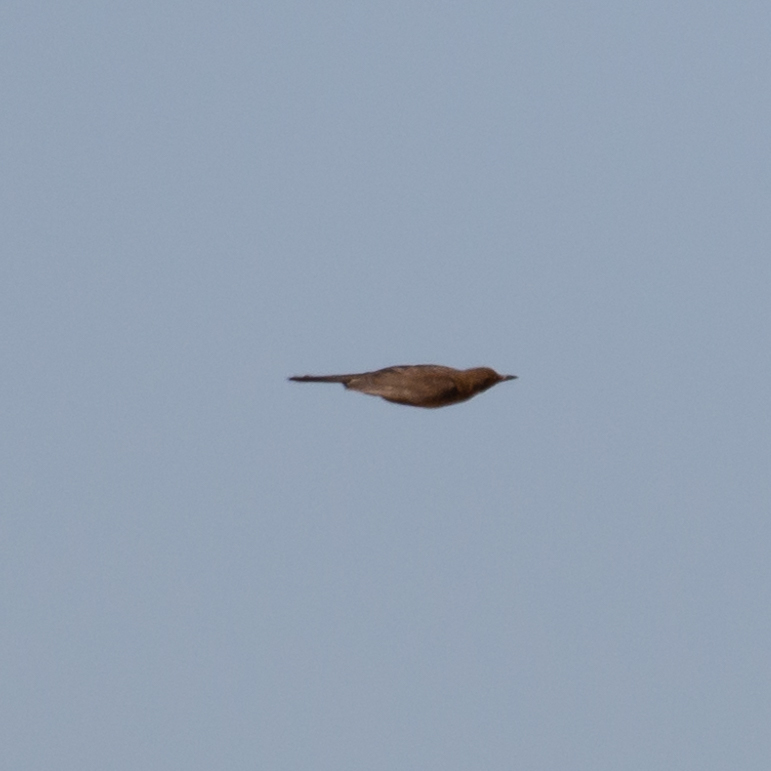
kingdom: Animalia
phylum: Chordata
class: Aves
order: Passeriformes
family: Turdidae
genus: Turdus
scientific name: Turdus merula
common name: Common blackbird
